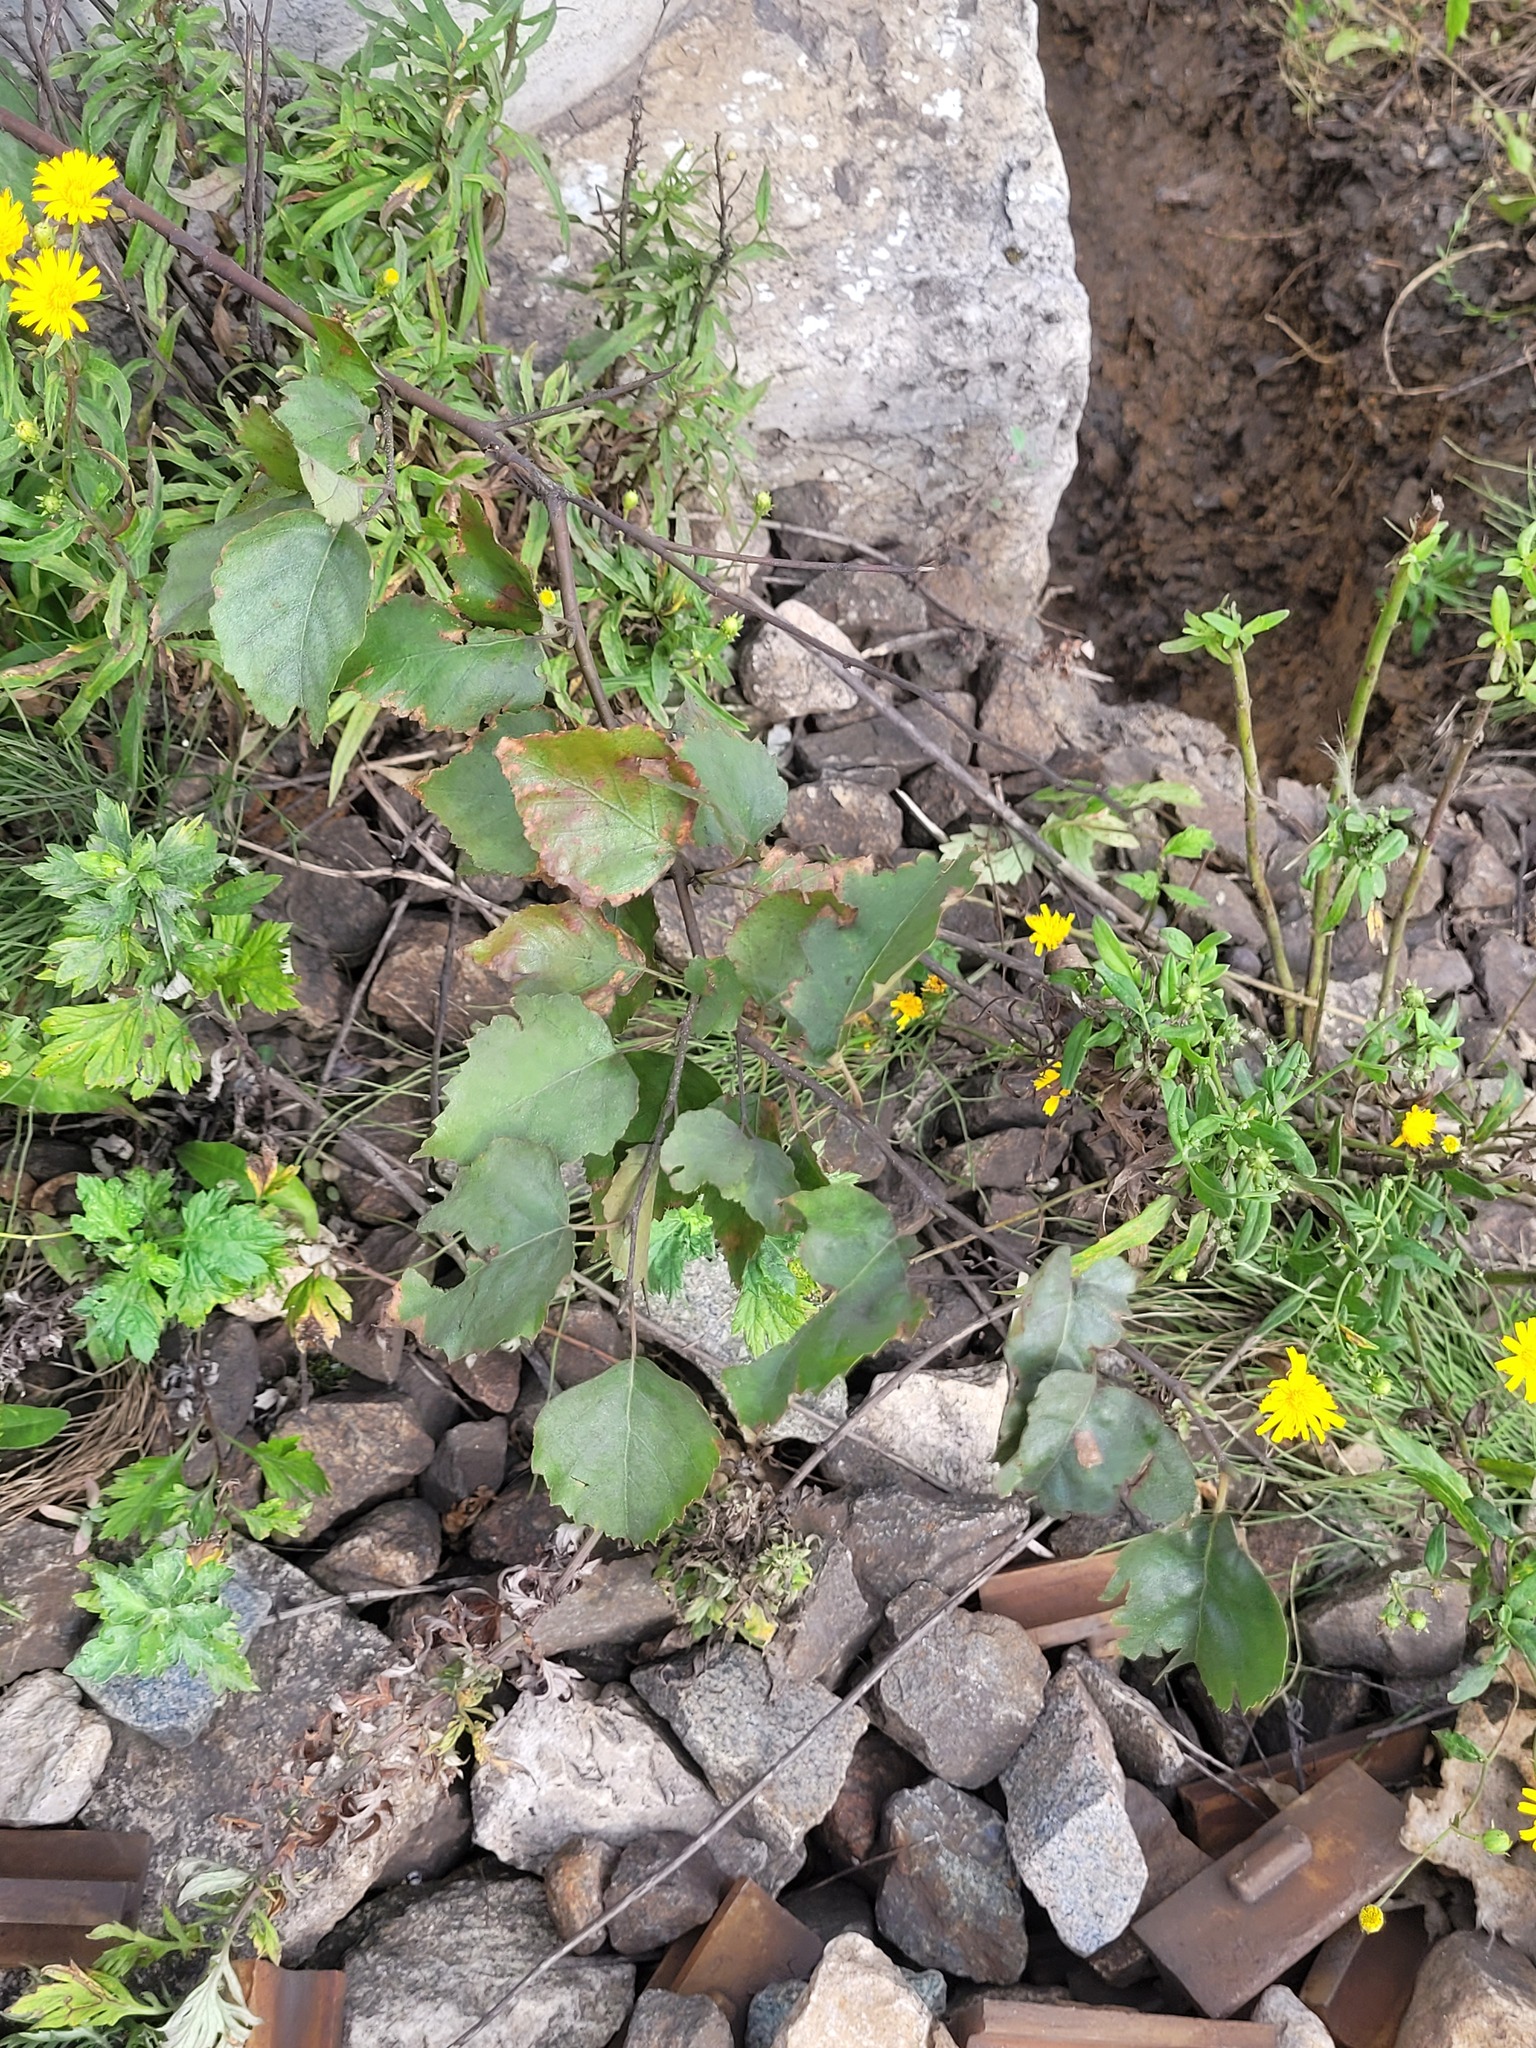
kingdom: Plantae
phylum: Tracheophyta
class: Magnoliopsida
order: Fagales
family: Betulaceae
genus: Betula
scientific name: Betula pendula
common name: Silver birch
